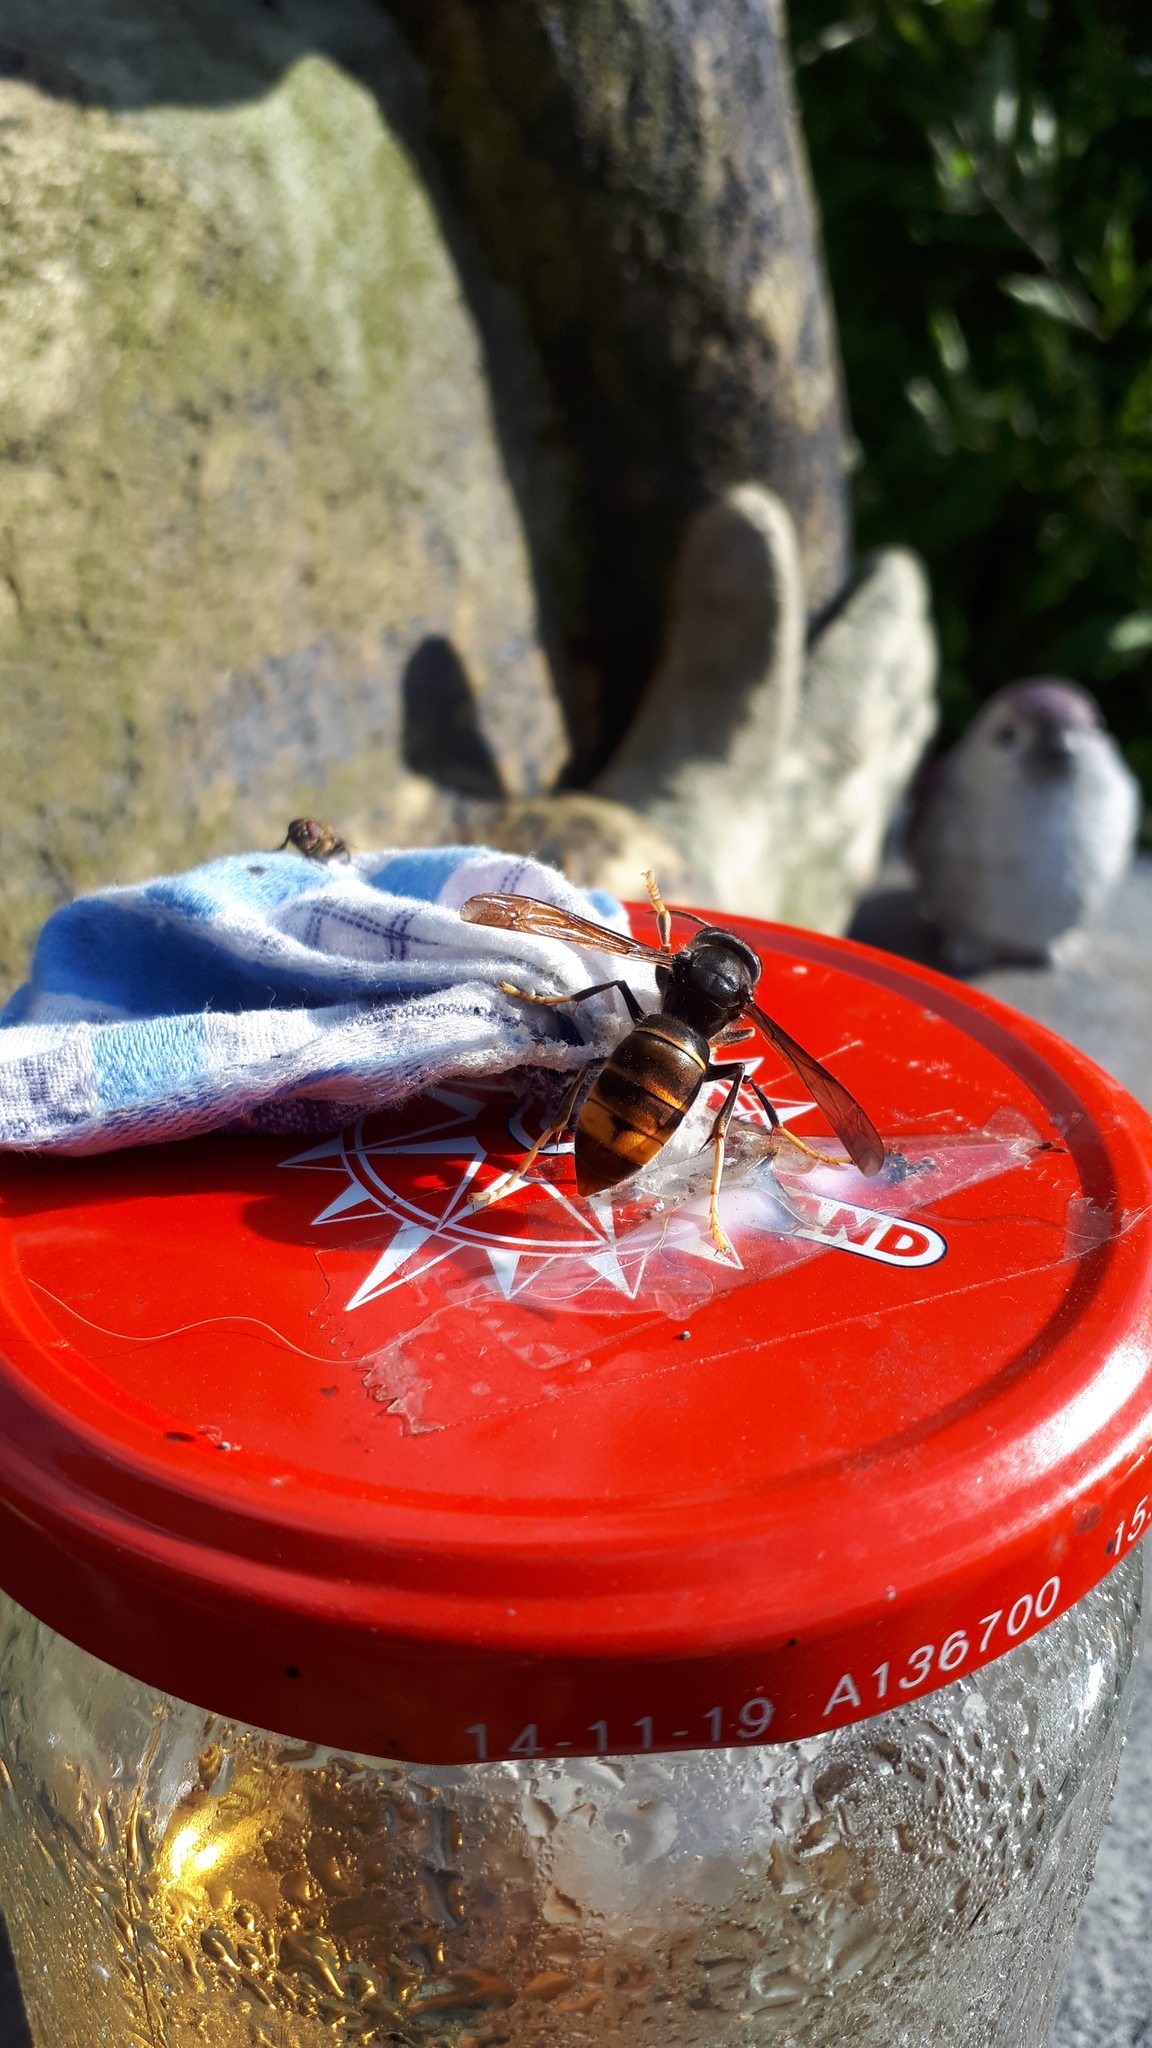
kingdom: Animalia
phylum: Arthropoda
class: Insecta
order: Hymenoptera
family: Vespidae
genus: Vespa
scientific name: Vespa velutina
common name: Asian hornet
